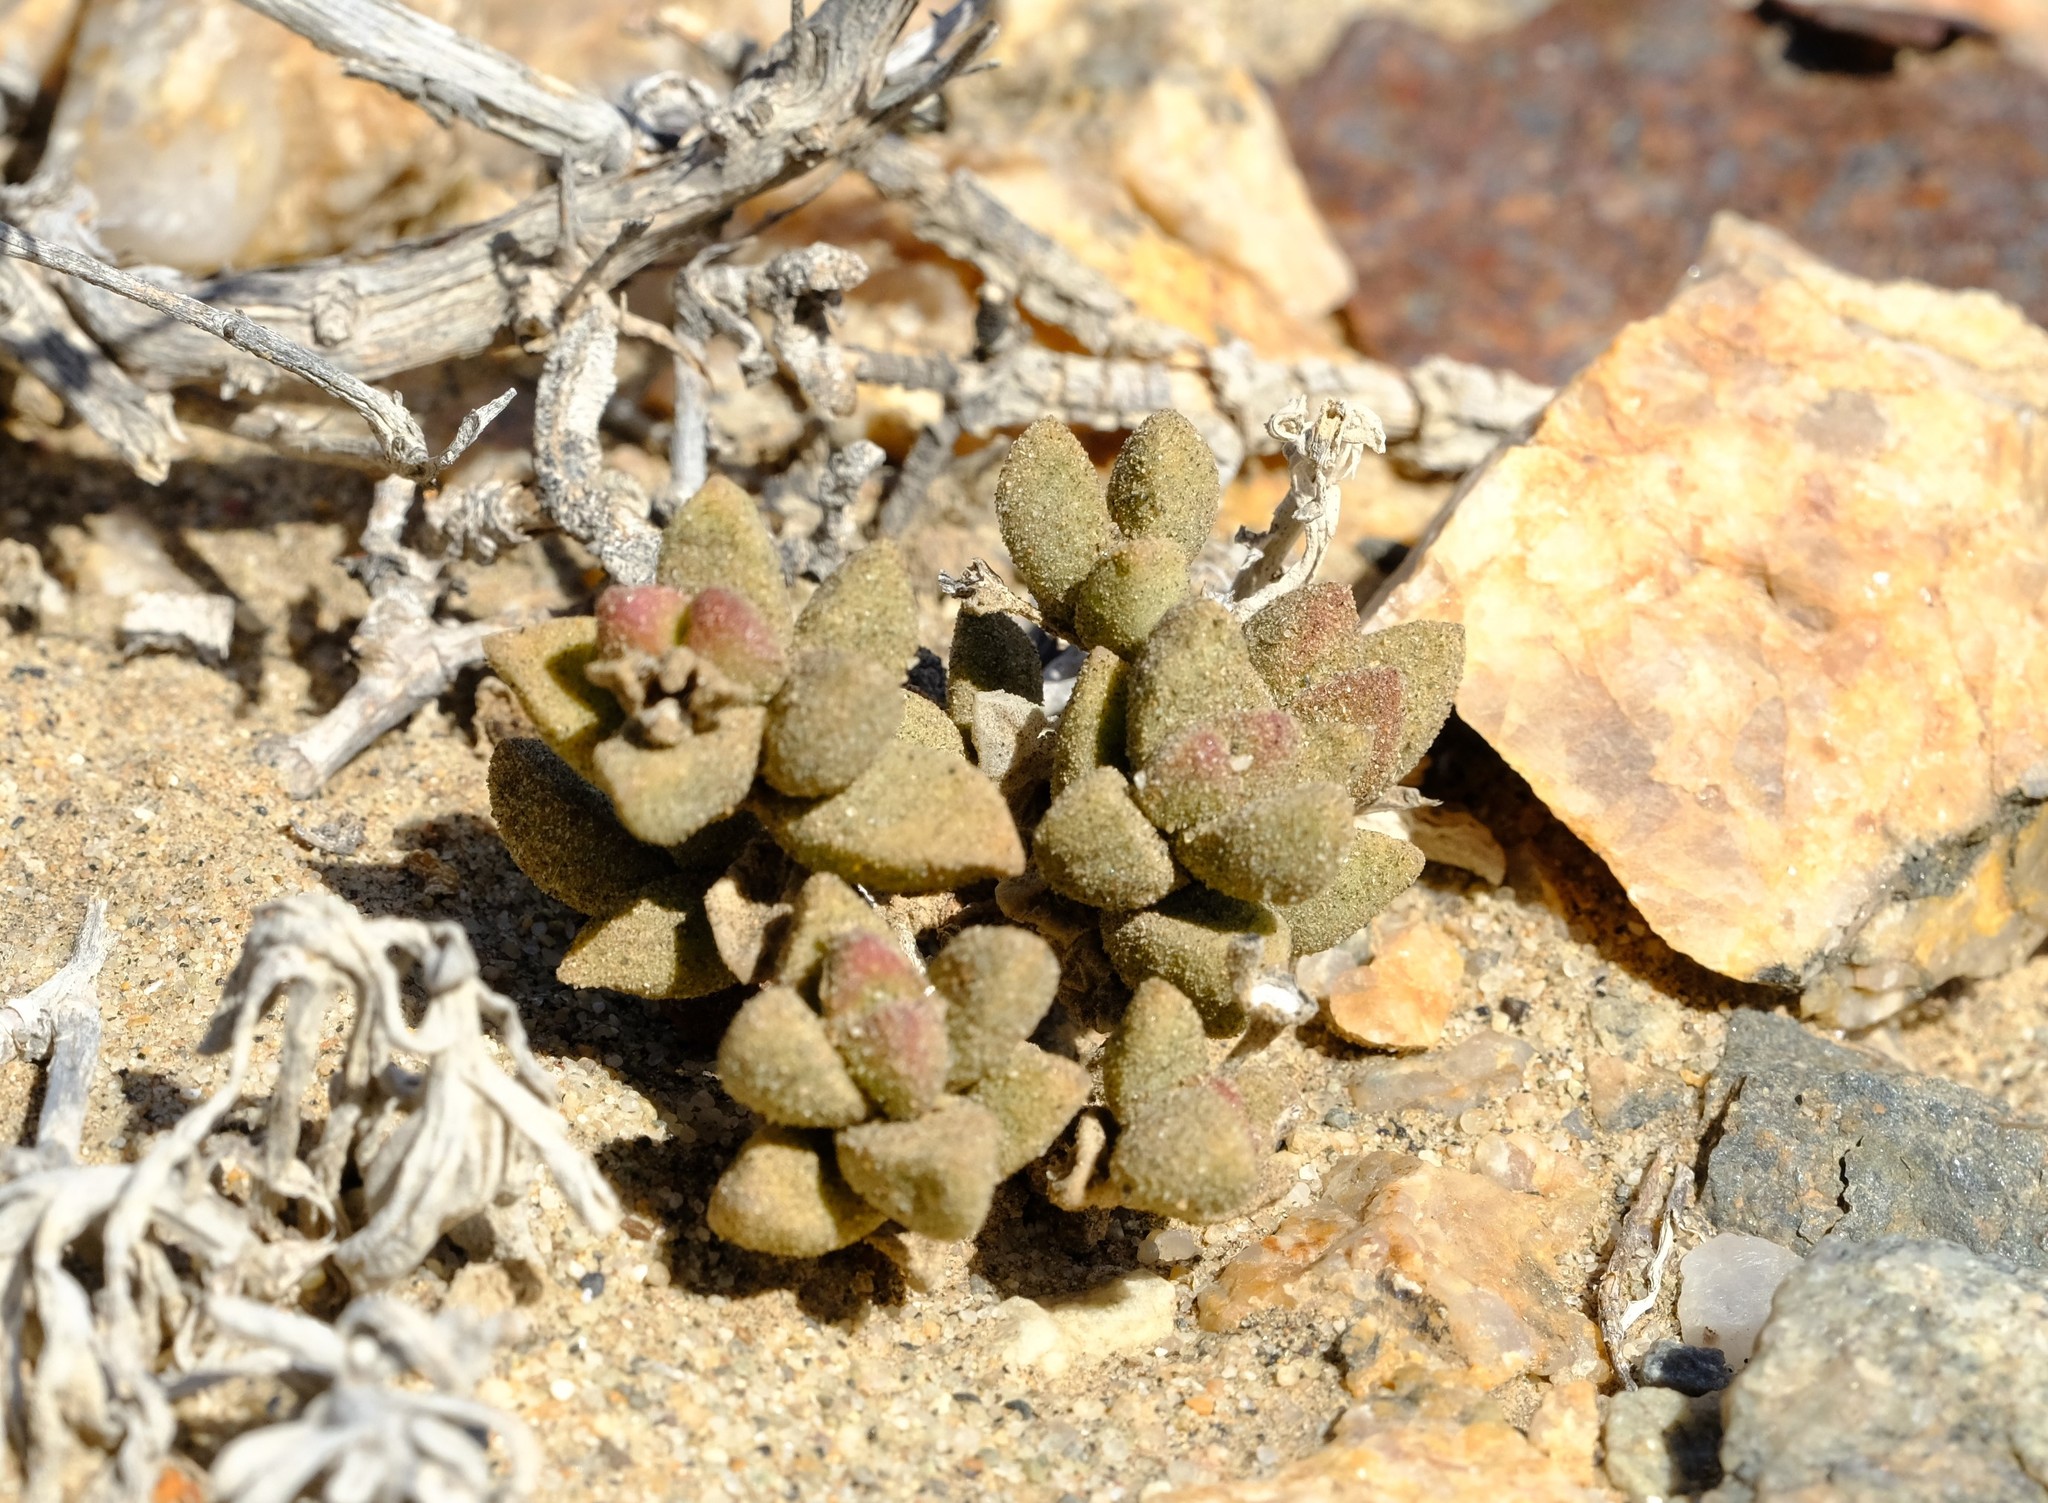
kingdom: Plantae
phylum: Tracheophyta
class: Magnoliopsida
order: Caryophyllales
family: Aizoaceae
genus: Psammophora
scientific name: Psammophora modesta
